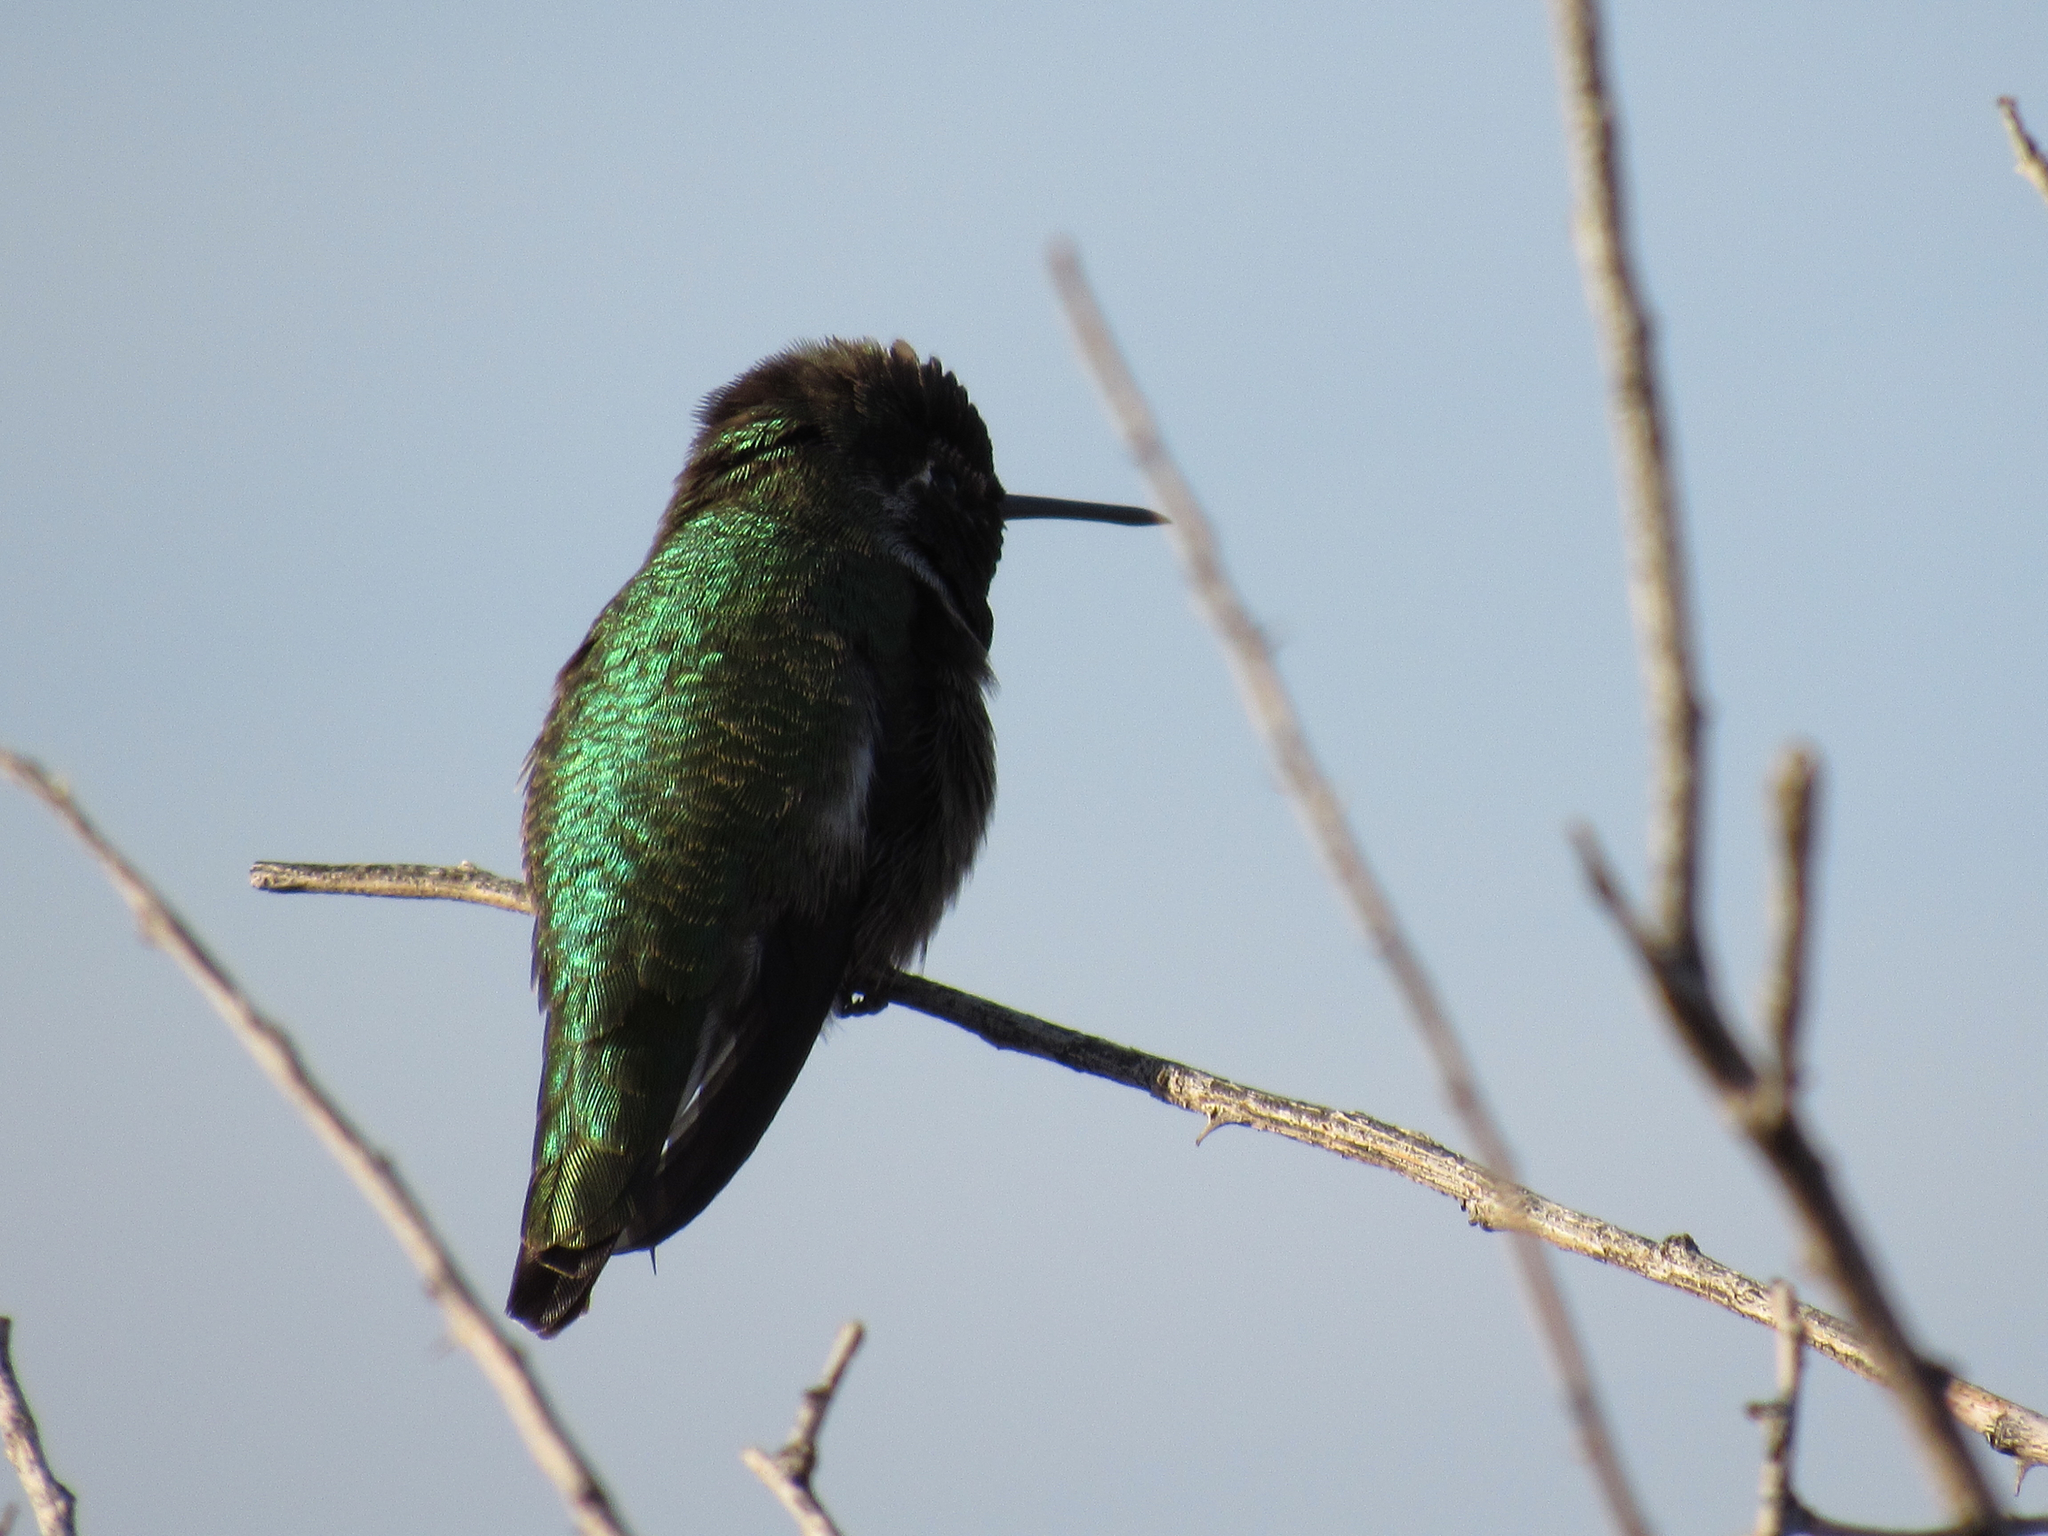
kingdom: Animalia
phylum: Chordata
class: Aves
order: Apodiformes
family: Trochilidae
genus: Calypte
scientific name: Calypte anna
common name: Anna's hummingbird
